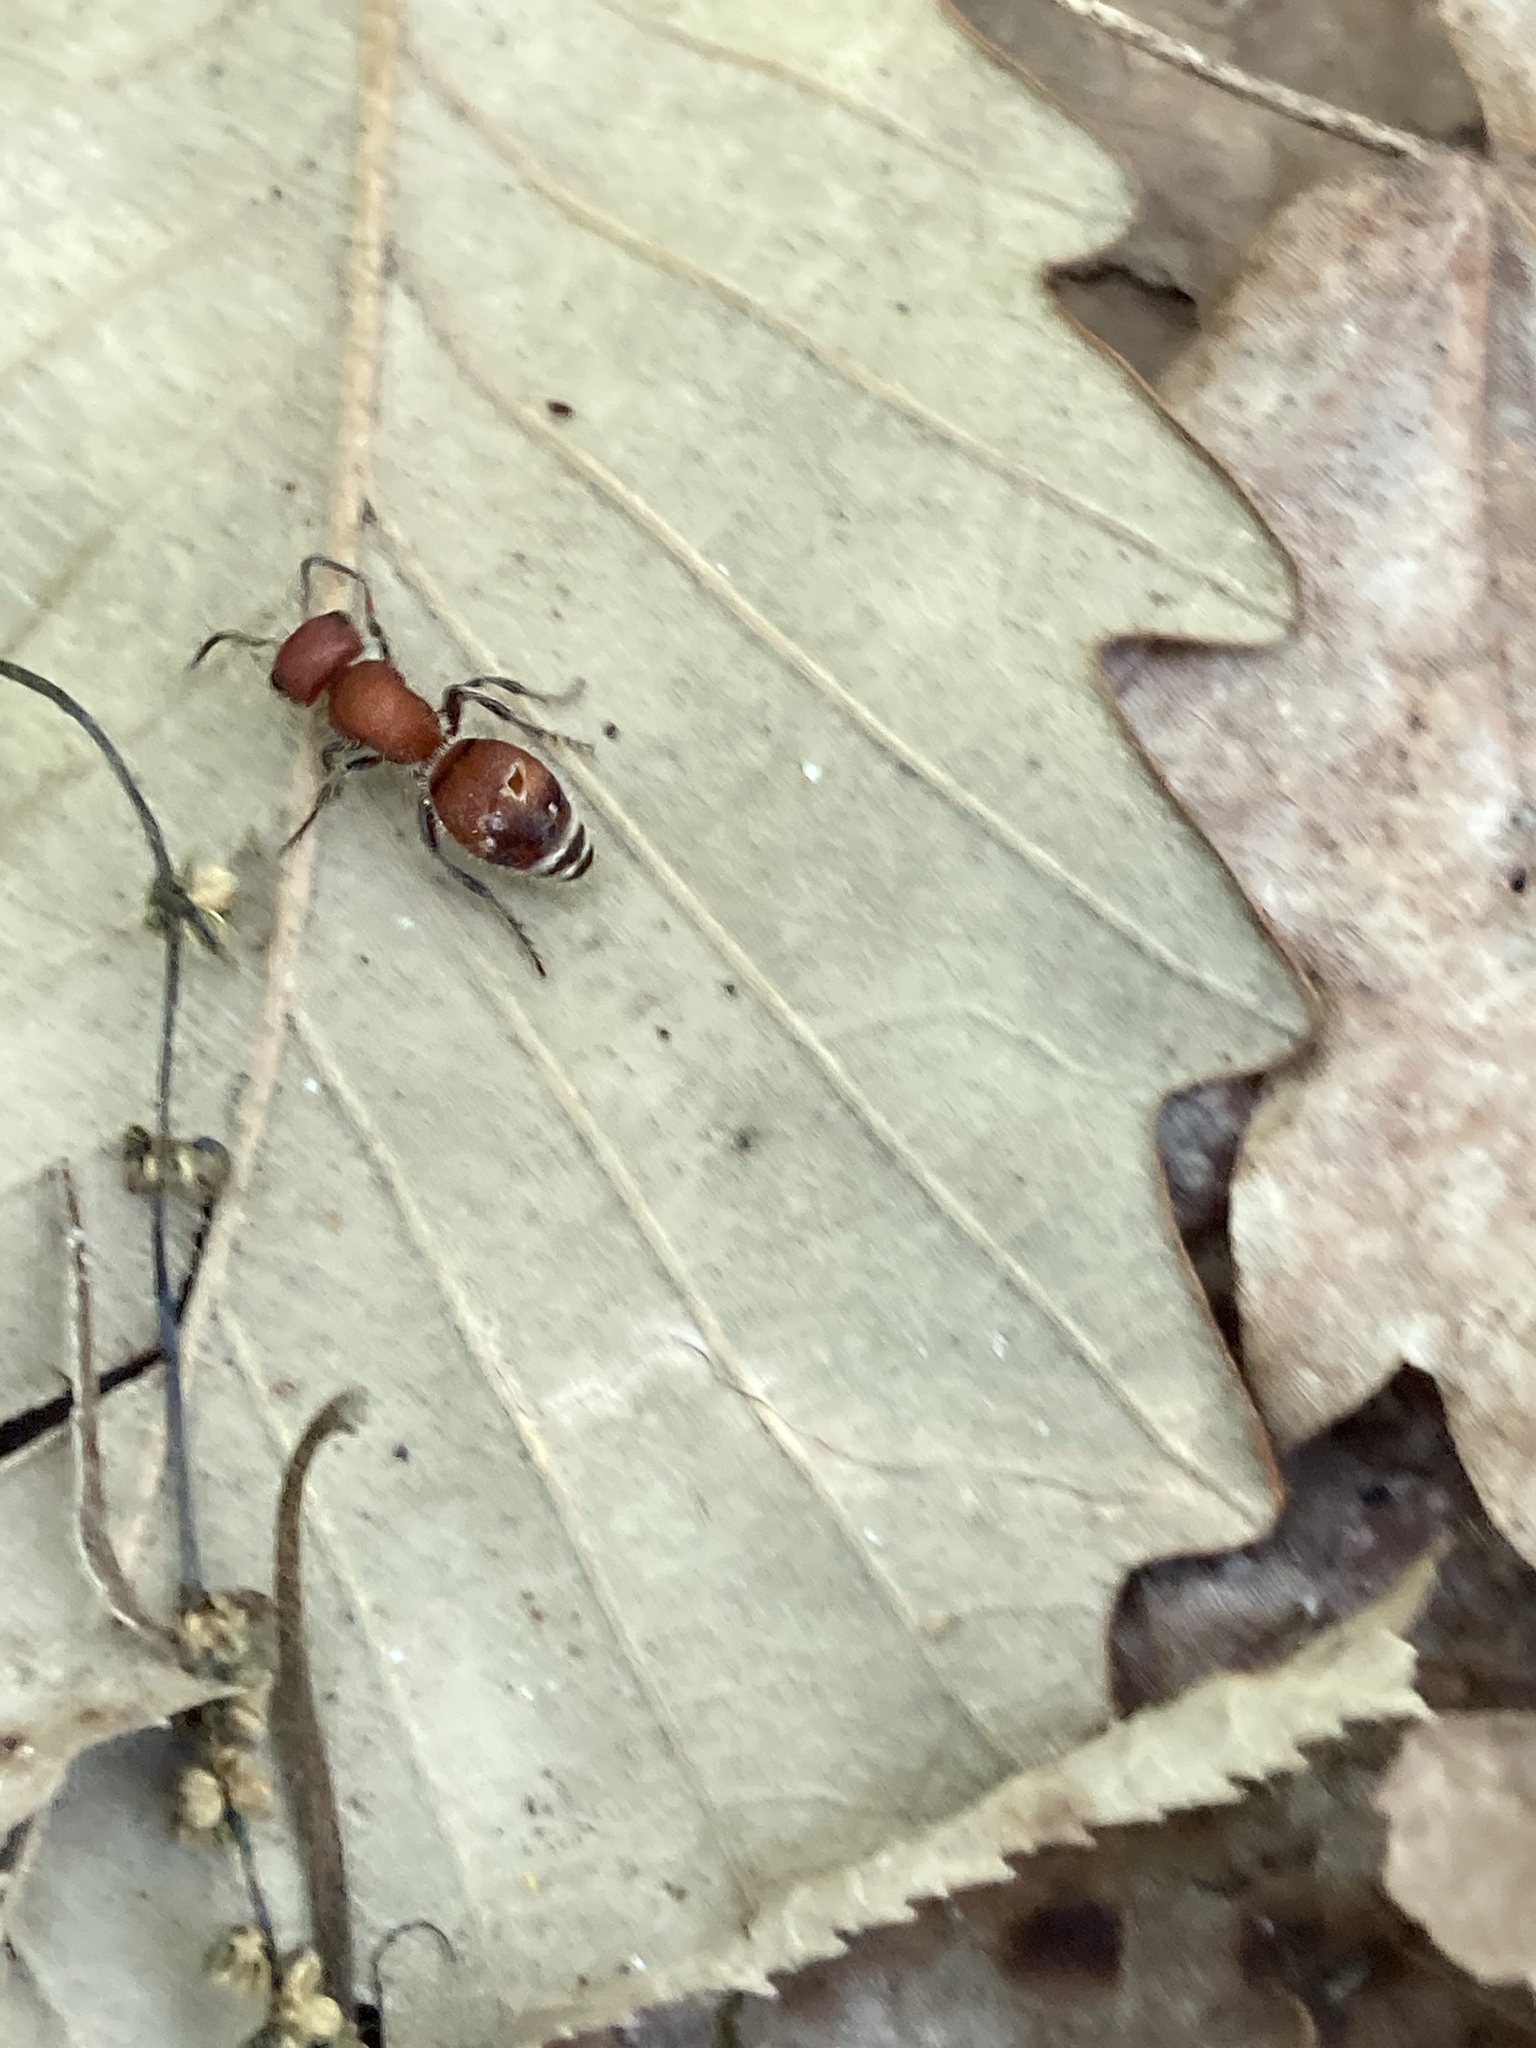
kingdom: Animalia
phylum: Arthropoda
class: Insecta
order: Hymenoptera
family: Mutillidae
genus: Pseudomethoca
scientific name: Pseudomethoca
